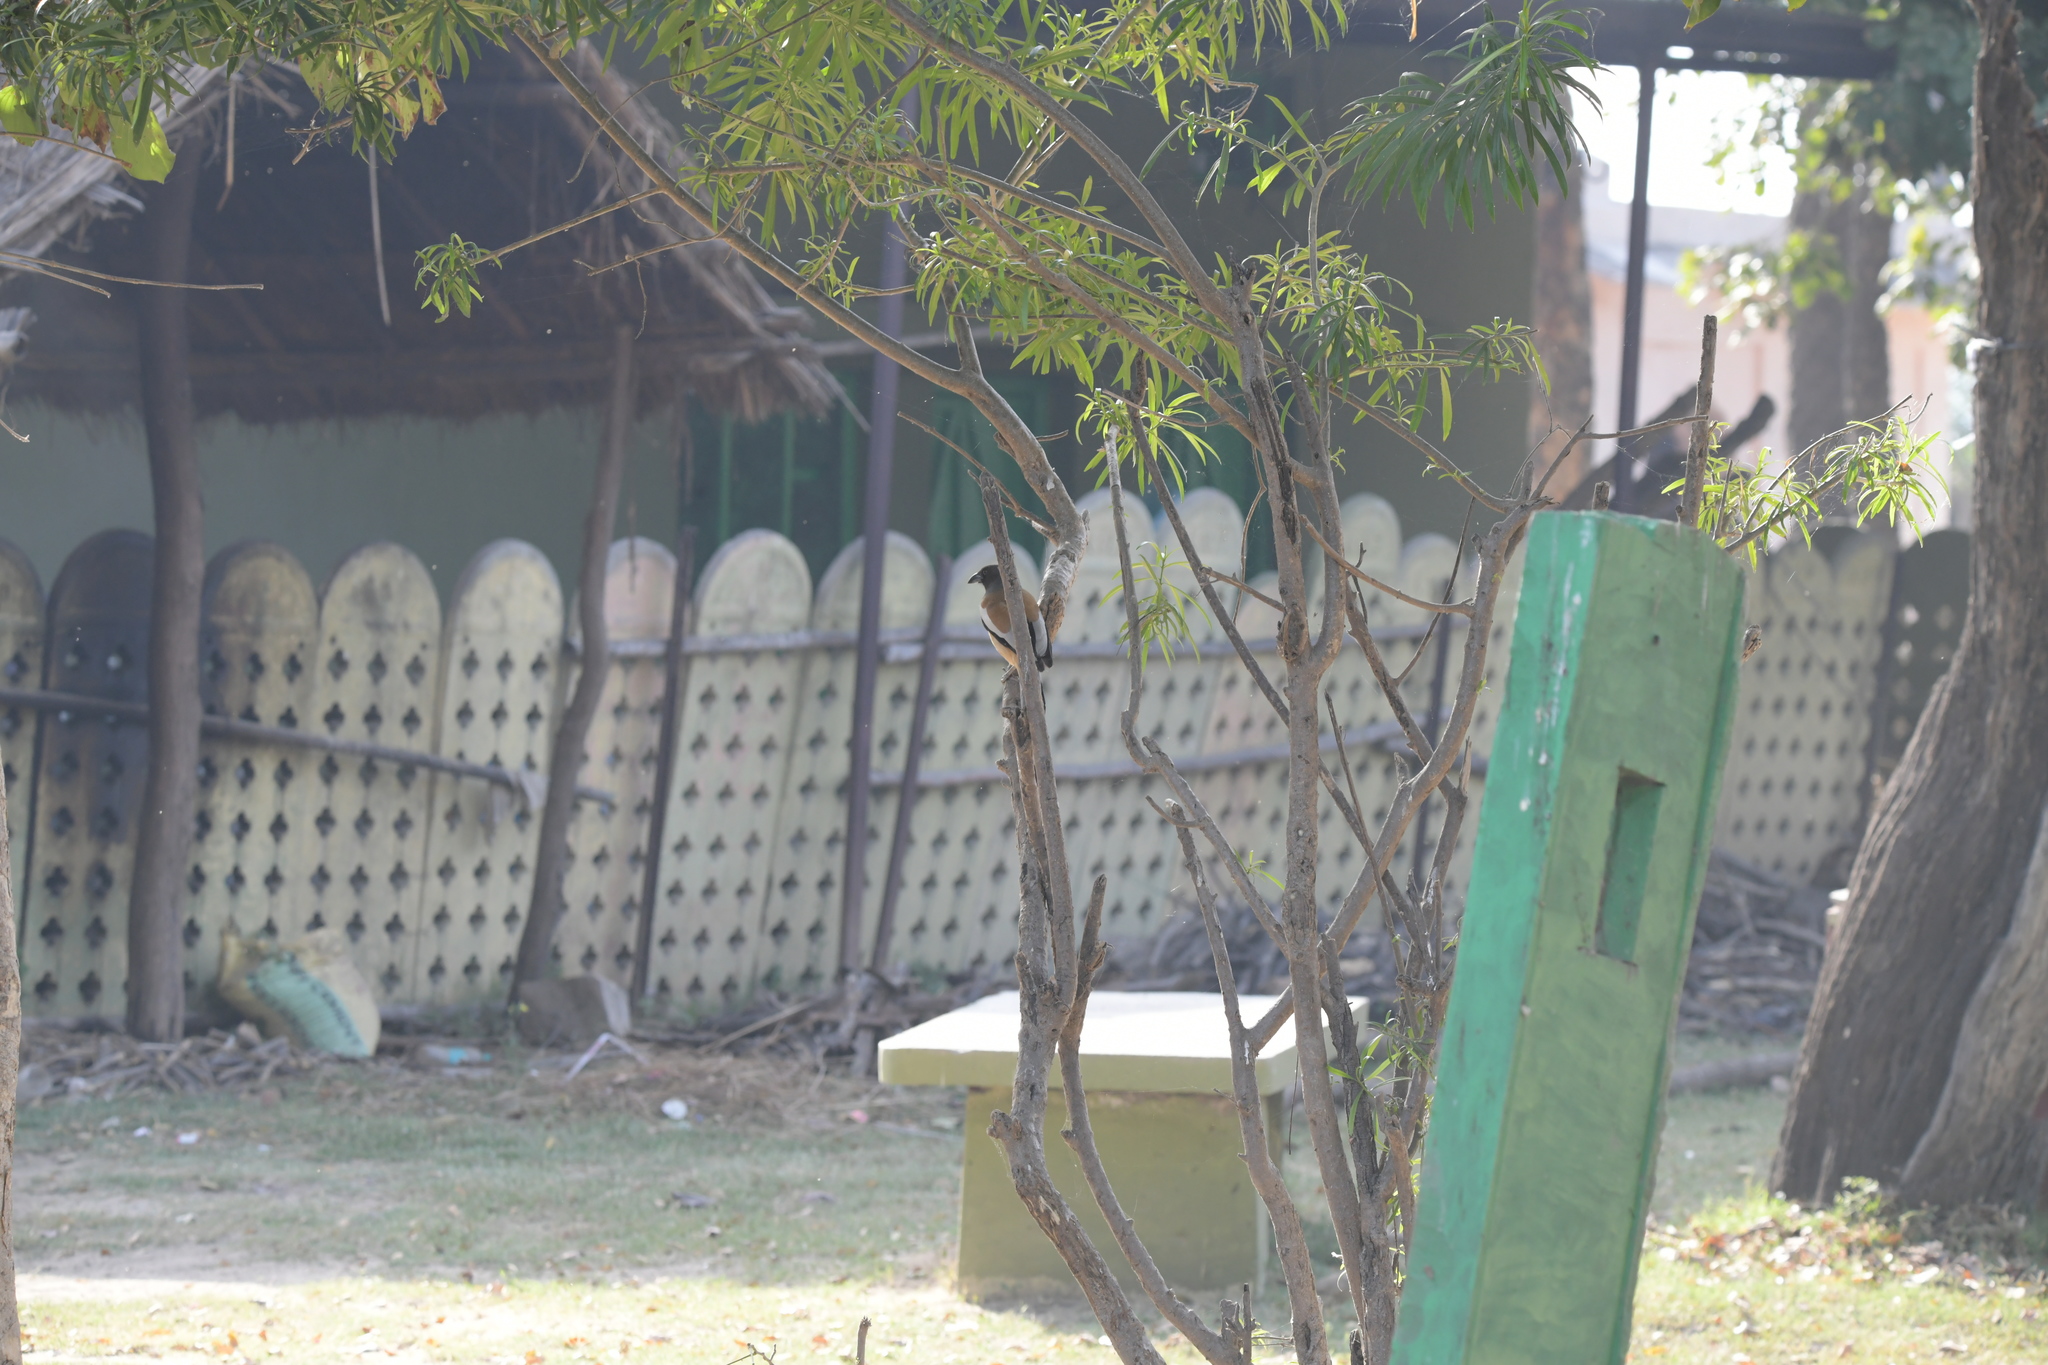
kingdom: Animalia
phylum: Chordata
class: Aves
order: Passeriformes
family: Corvidae
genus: Dendrocitta
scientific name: Dendrocitta vagabunda
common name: Rufous treepie
